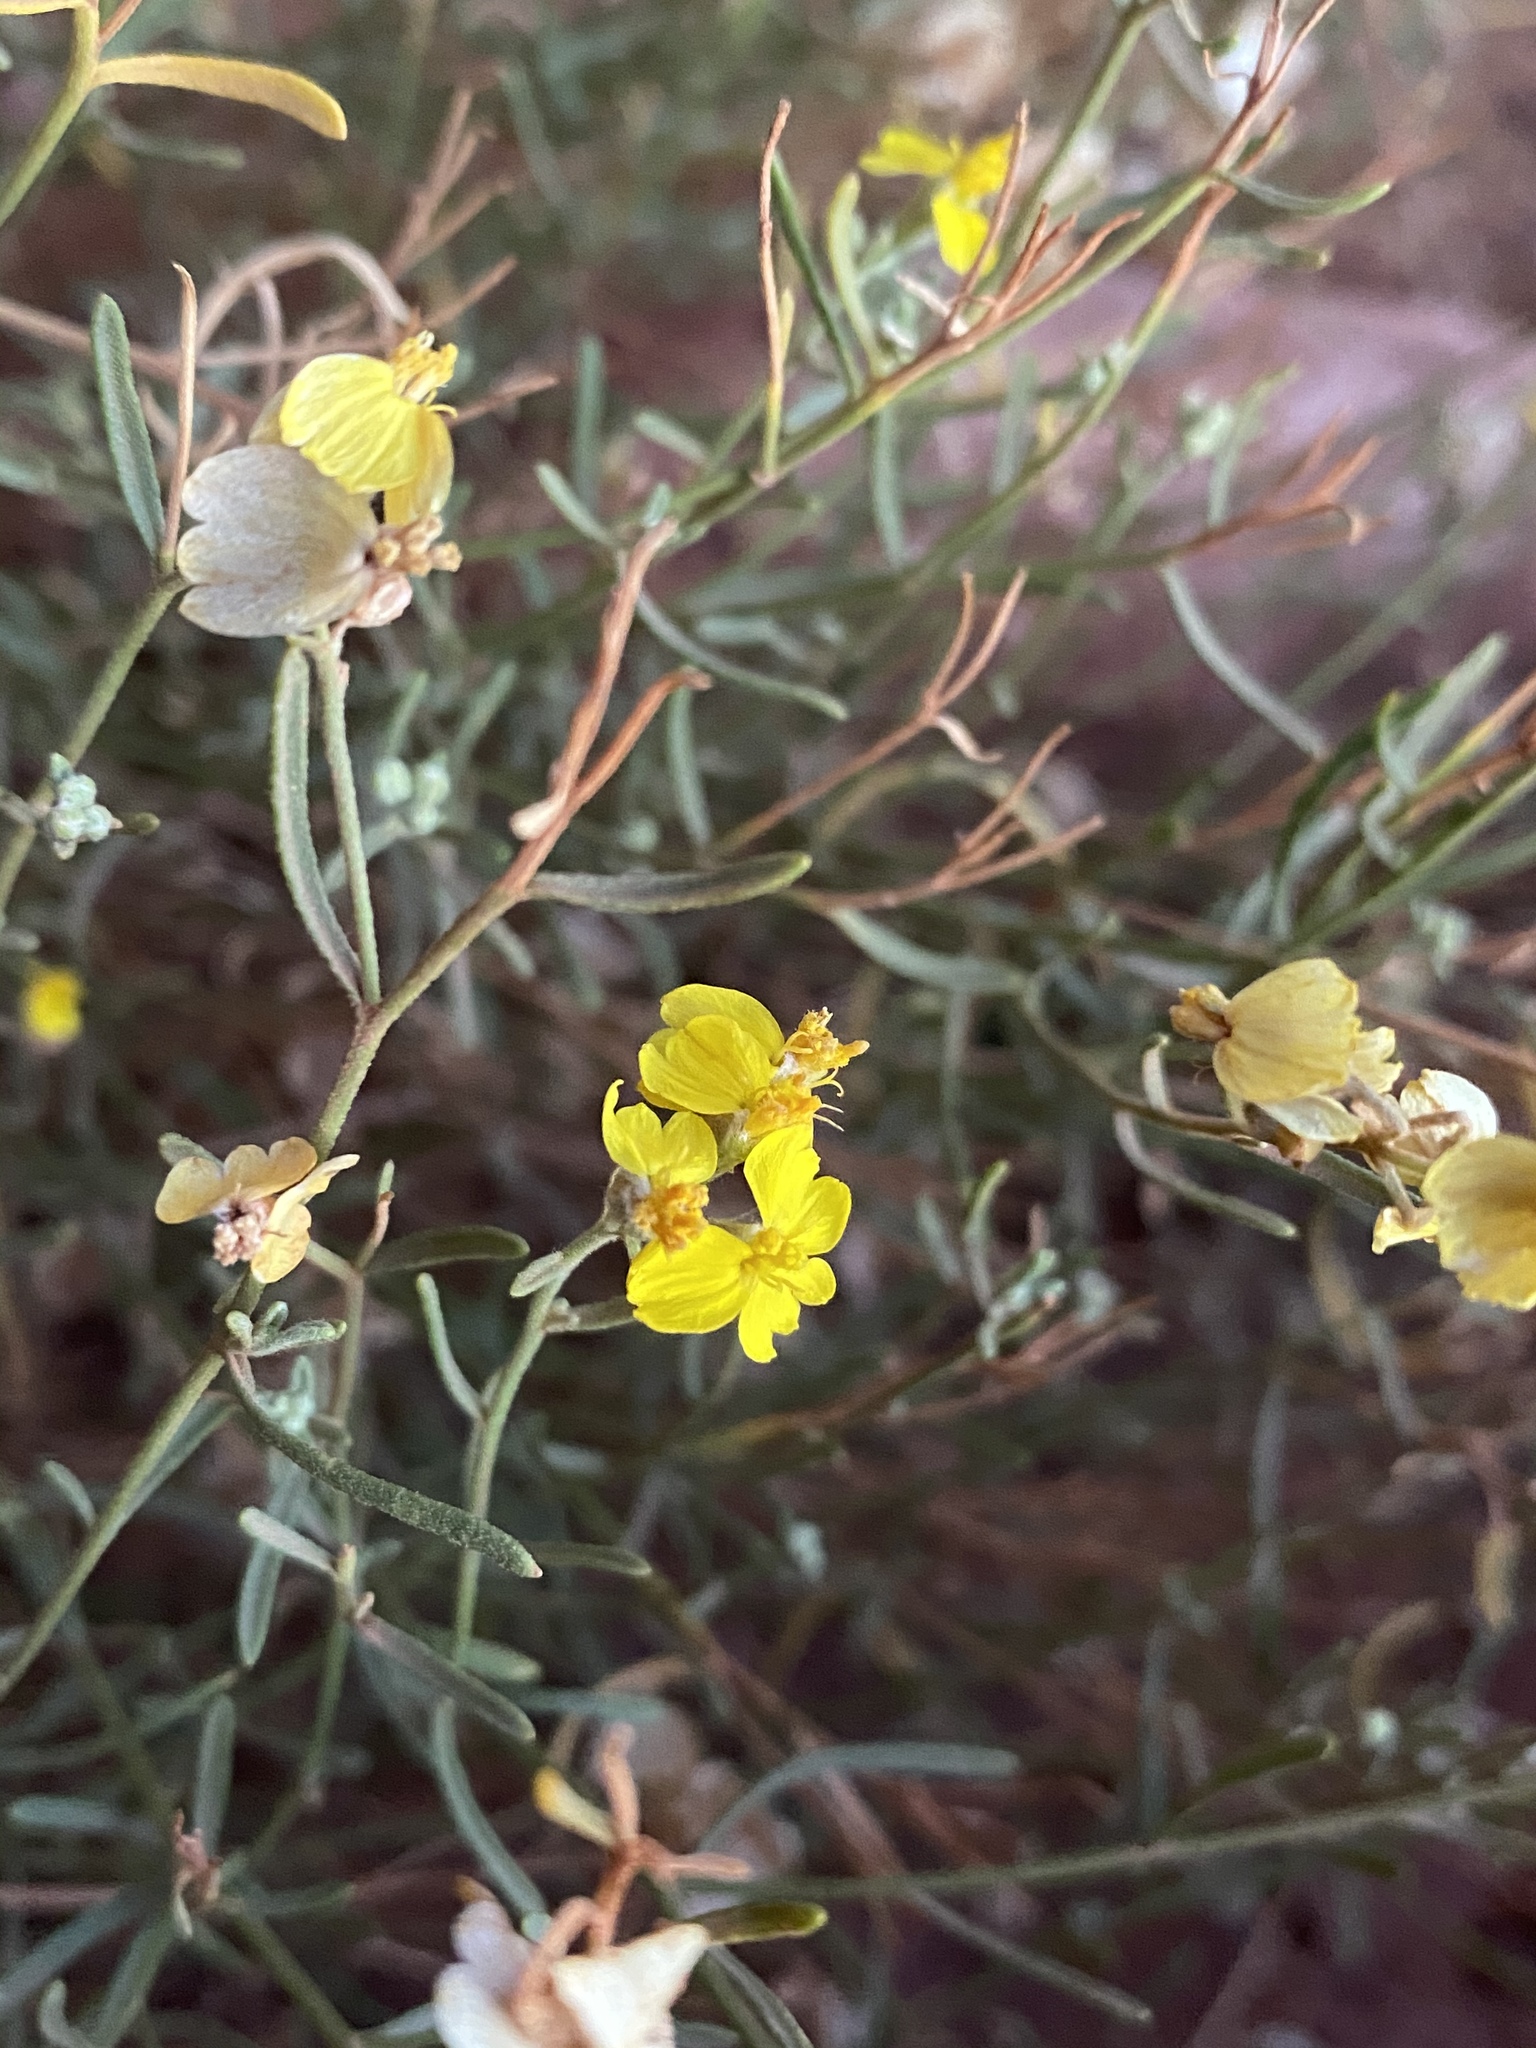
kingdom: Plantae
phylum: Tracheophyta
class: Magnoliopsida
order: Asterales
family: Asteraceae
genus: Psilostrophe
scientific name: Psilostrophe tagetina
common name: Marigold paper-flower
